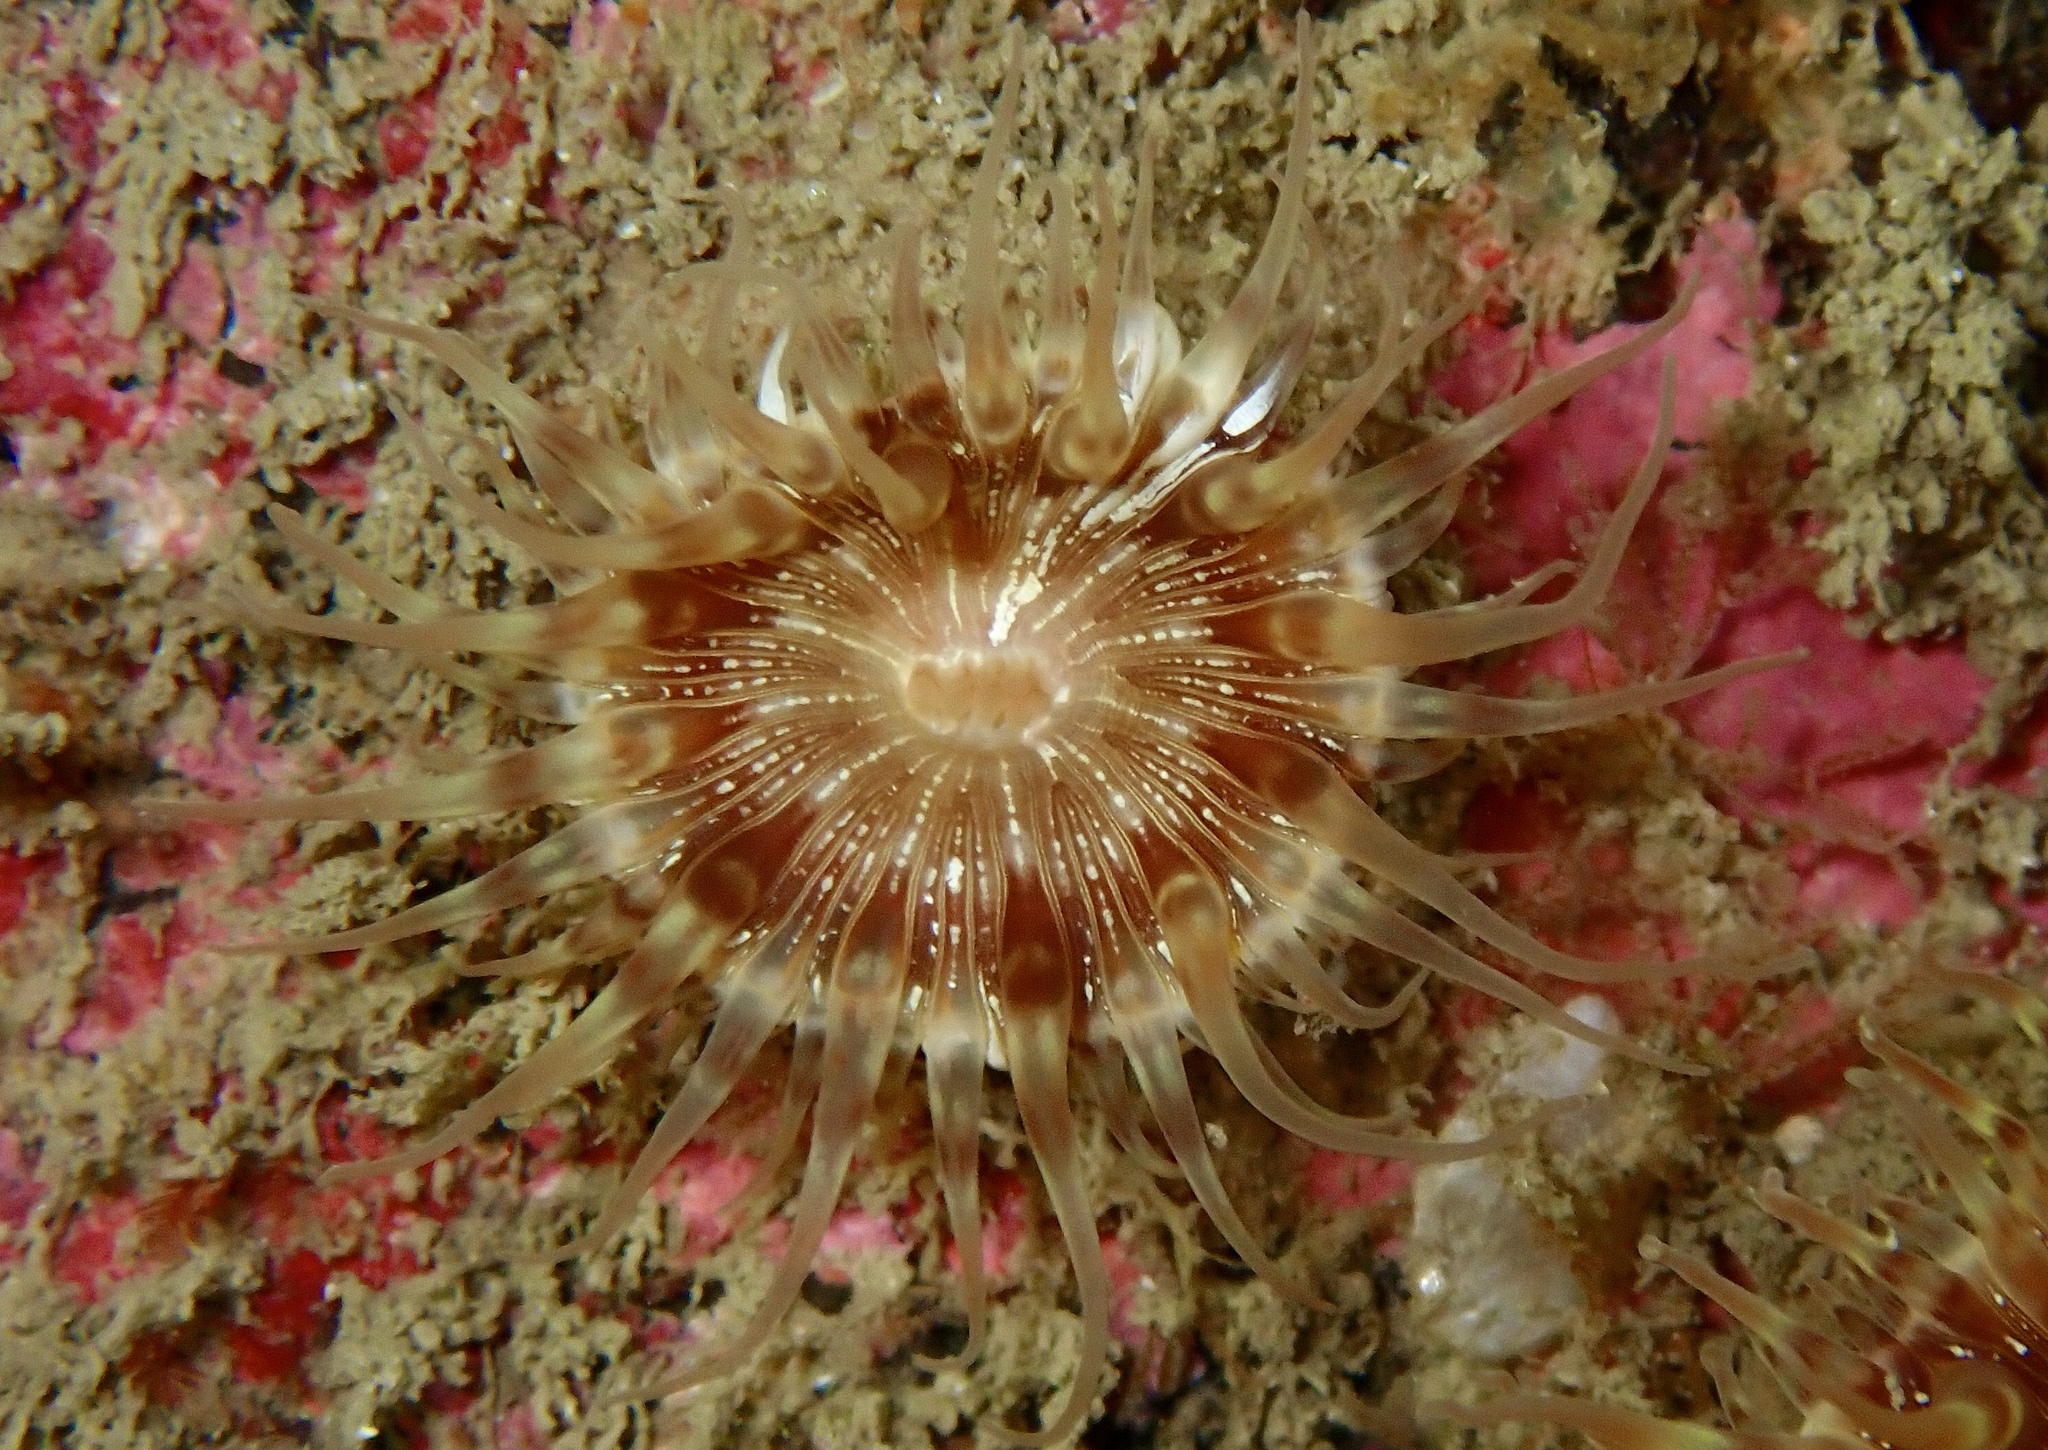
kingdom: Animalia
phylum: Cnidaria
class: Anthozoa
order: Actiniaria
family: Hormathiidae
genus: Hormathia
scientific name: Hormathia coronata
